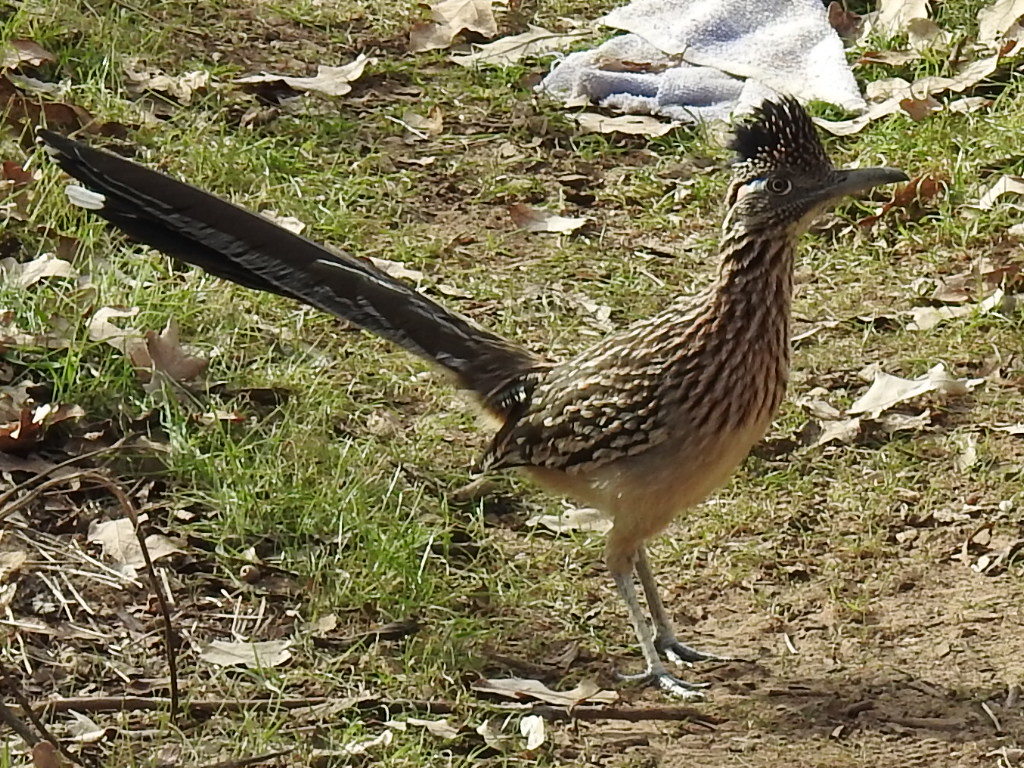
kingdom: Animalia
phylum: Chordata
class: Aves
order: Cuculiformes
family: Cuculidae
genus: Geococcyx
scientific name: Geococcyx californianus
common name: Greater roadrunner
